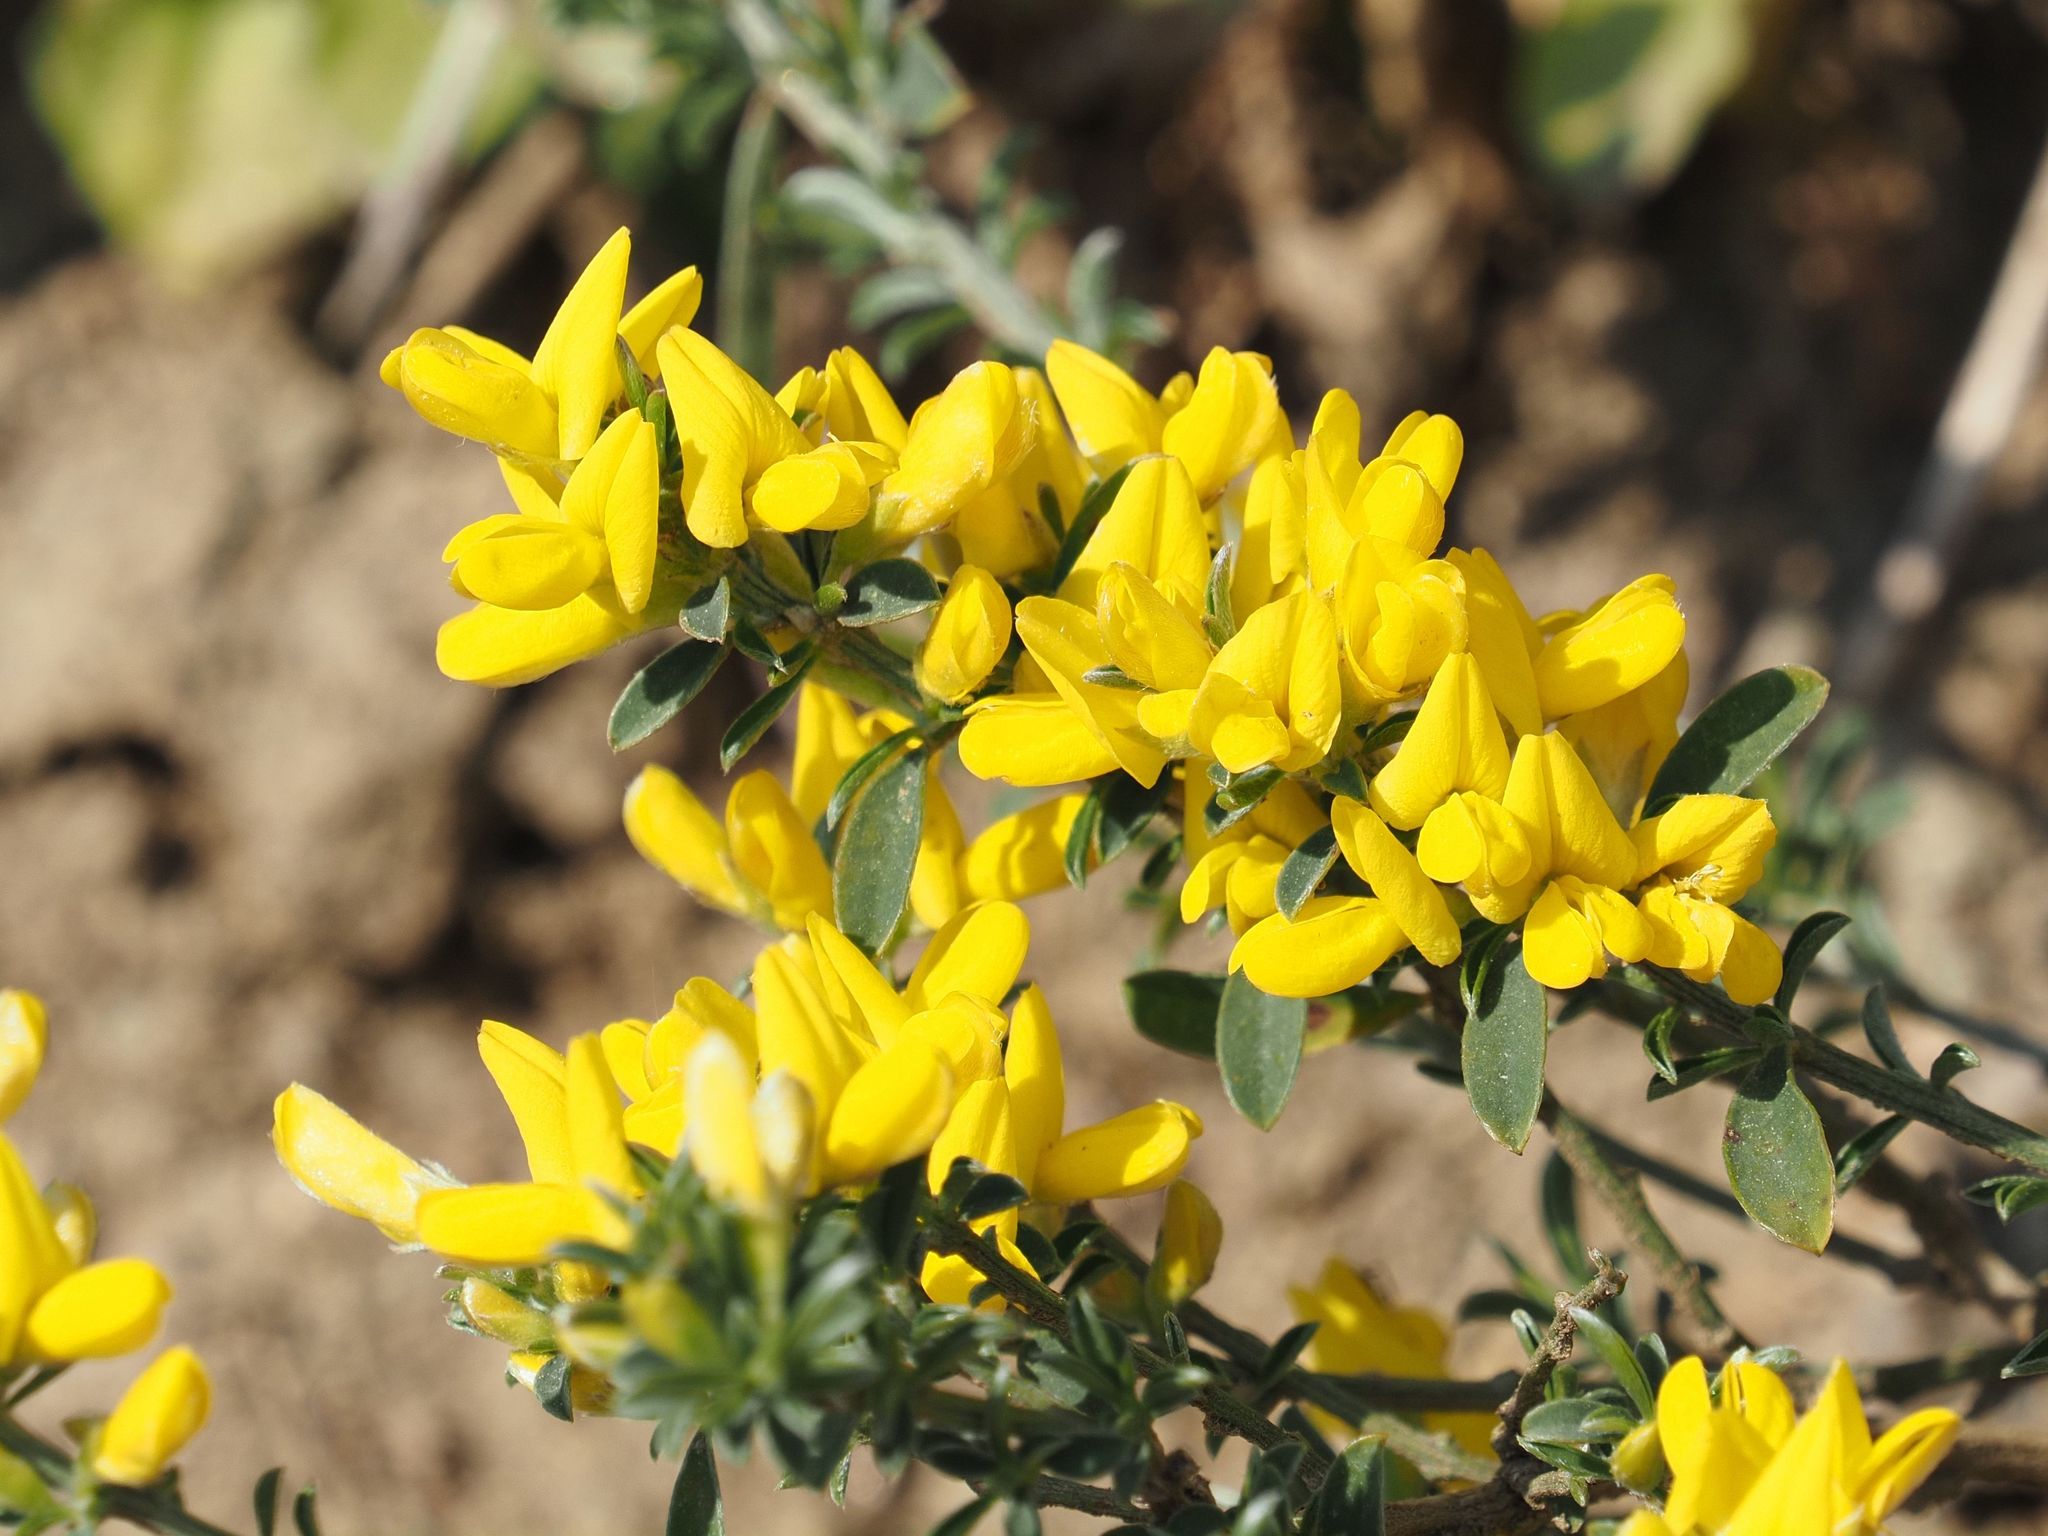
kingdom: Plantae
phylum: Tracheophyta
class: Magnoliopsida
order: Fabales
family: Fabaceae
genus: Genista
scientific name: Genista pilosa
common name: Hairy greenweed
